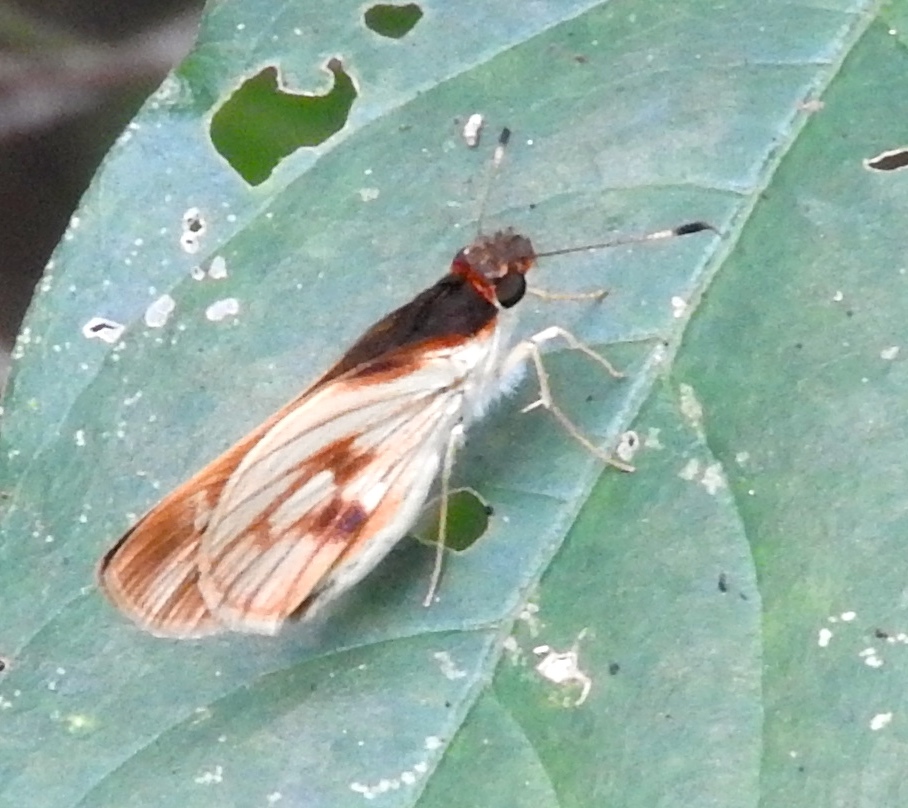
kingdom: Animalia
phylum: Arthropoda
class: Insecta
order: Lepidoptera
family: Hesperiidae
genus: Troyus
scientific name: Troyus fantasos
